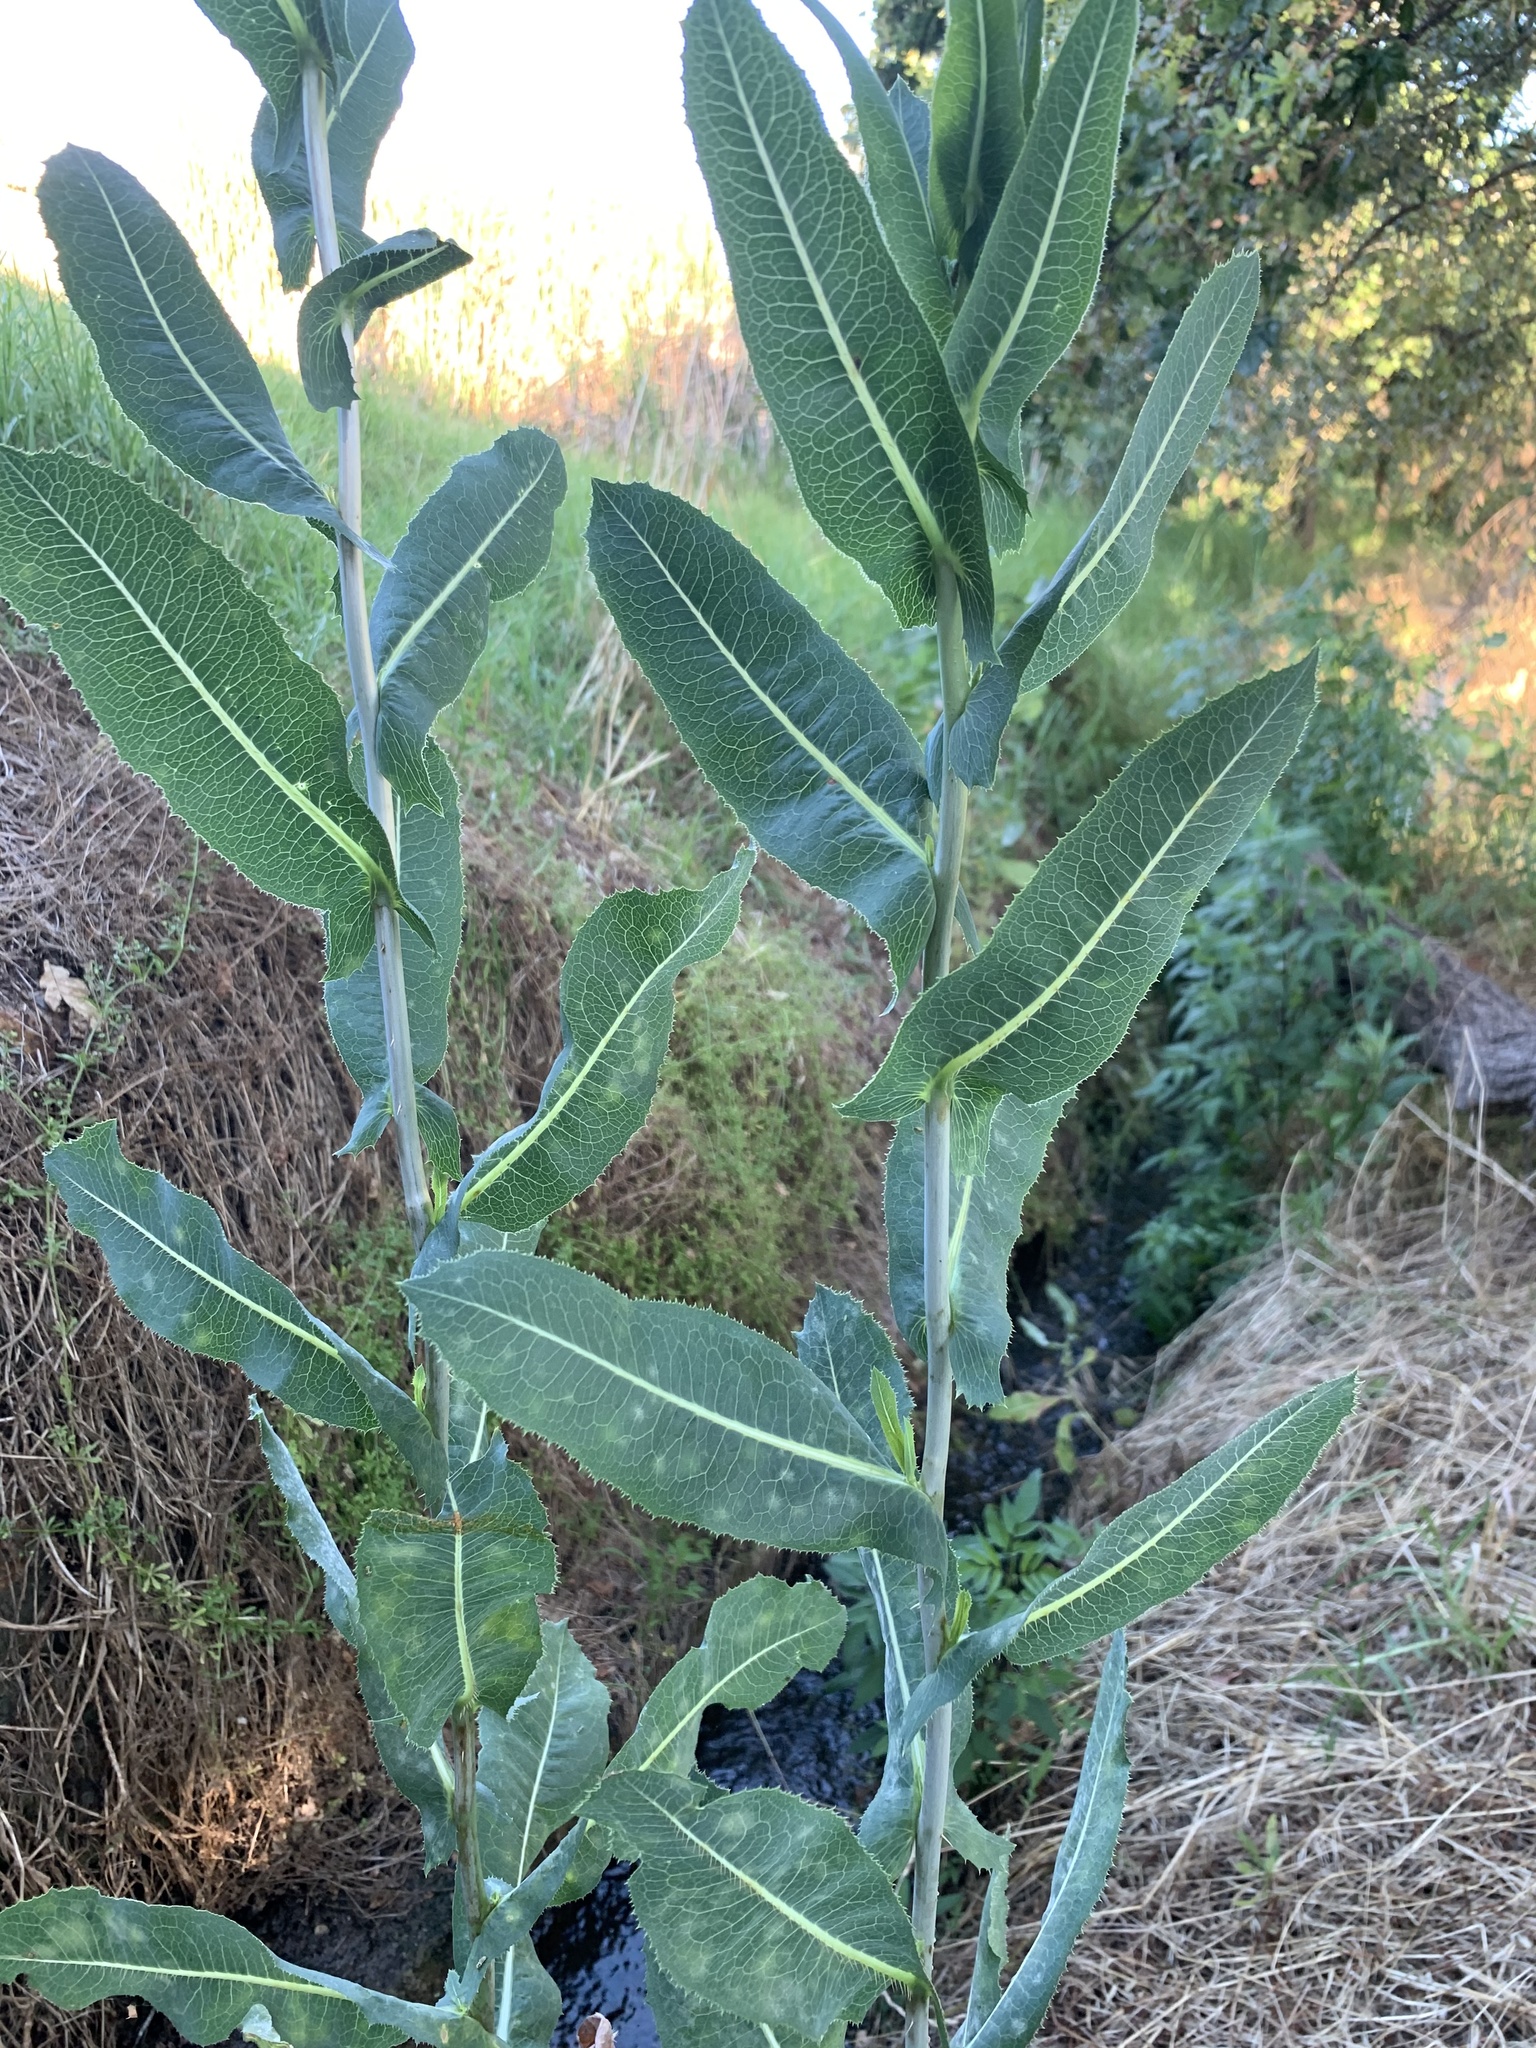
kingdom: Plantae
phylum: Tracheophyta
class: Magnoliopsida
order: Asterales
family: Asteraceae
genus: Lactuca
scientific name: Lactuca serriola
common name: Prickly lettuce
